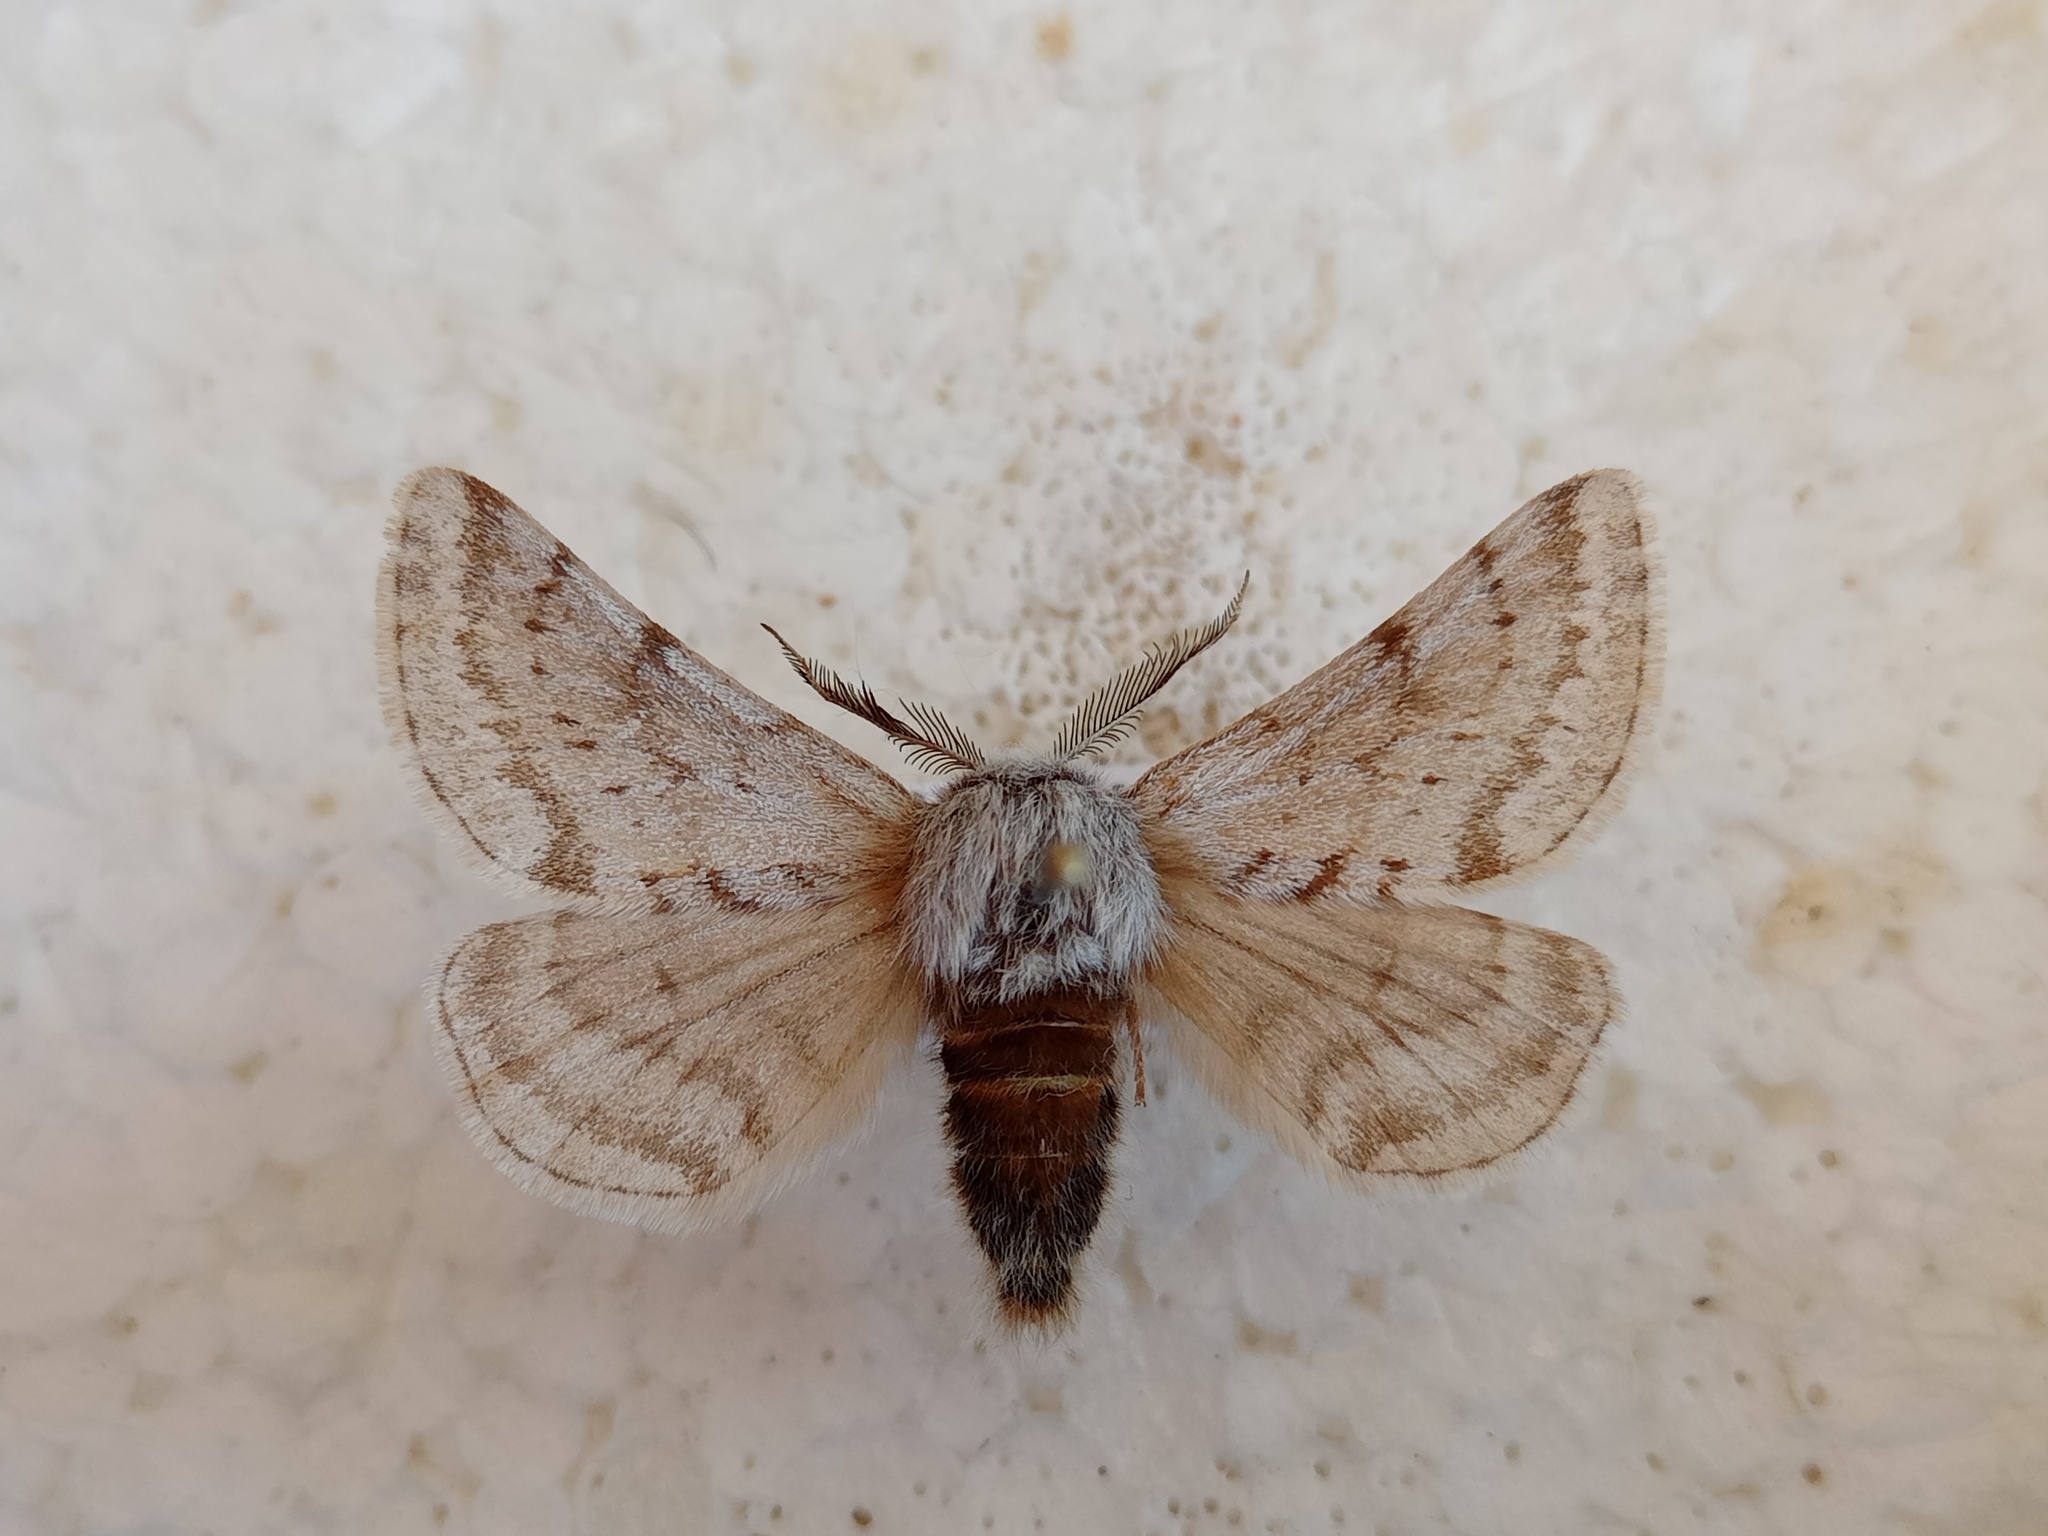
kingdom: Animalia
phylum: Arthropoda
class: Insecta
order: Lepidoptera
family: Geometridae
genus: Lycia
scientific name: Lycia graecarius
